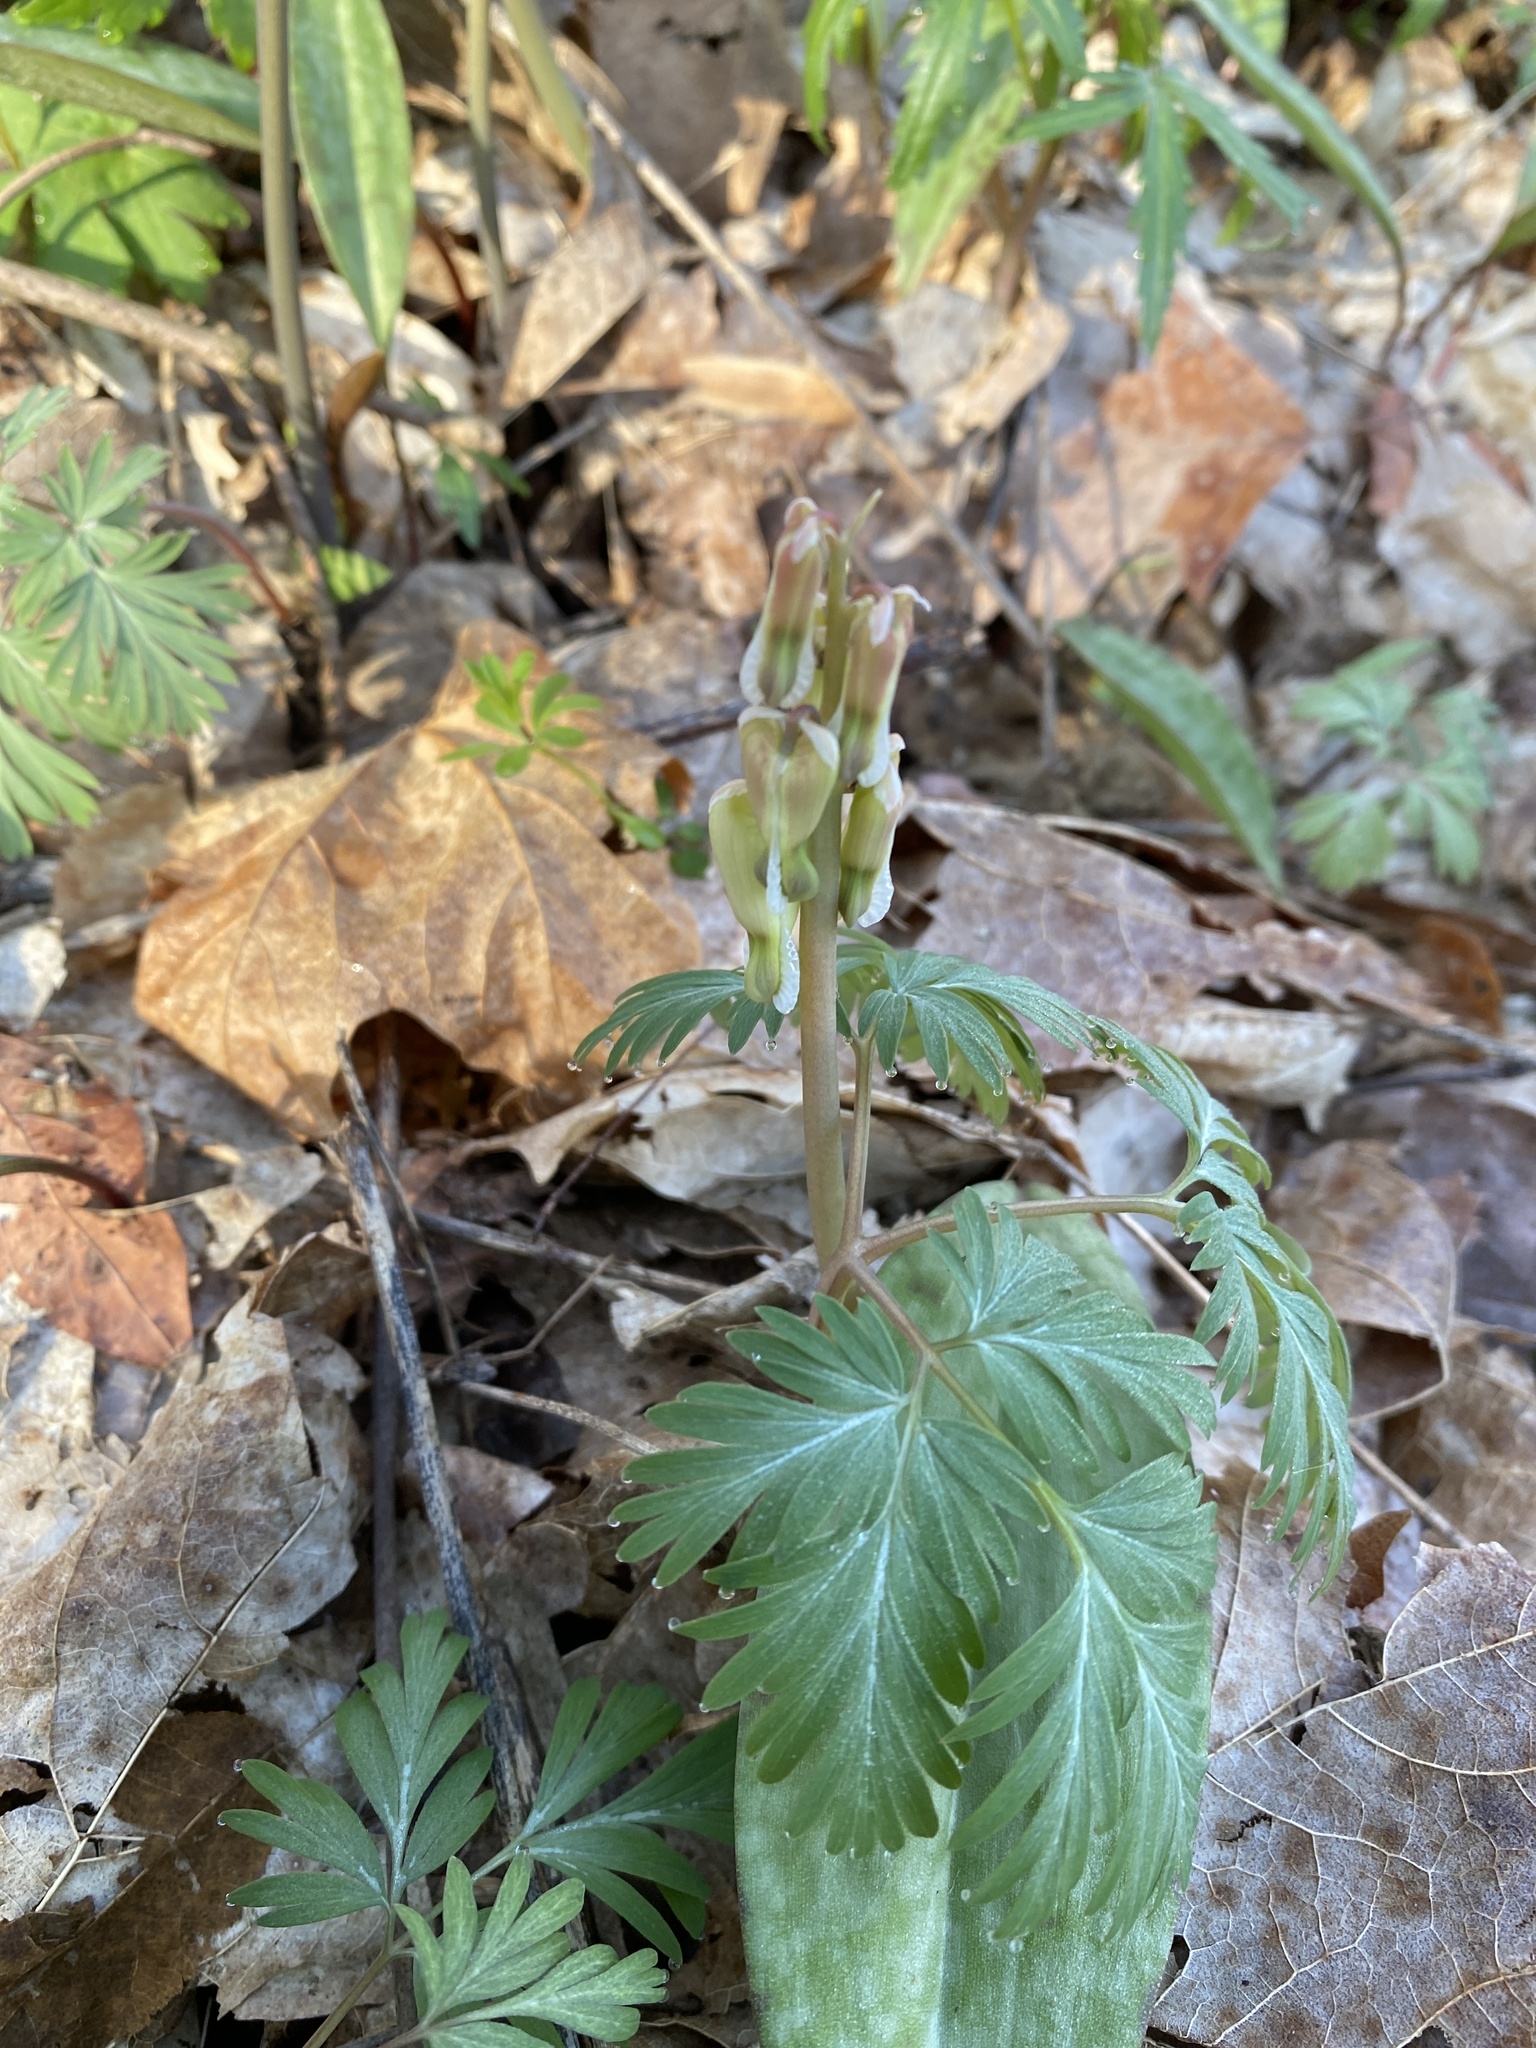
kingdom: Plantae
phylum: Tracheophyta
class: Magnoliopsida
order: Ranunculales
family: Papaveraceae
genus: Dicentra
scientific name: Dicentra canadensis
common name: Squirrel-corn
